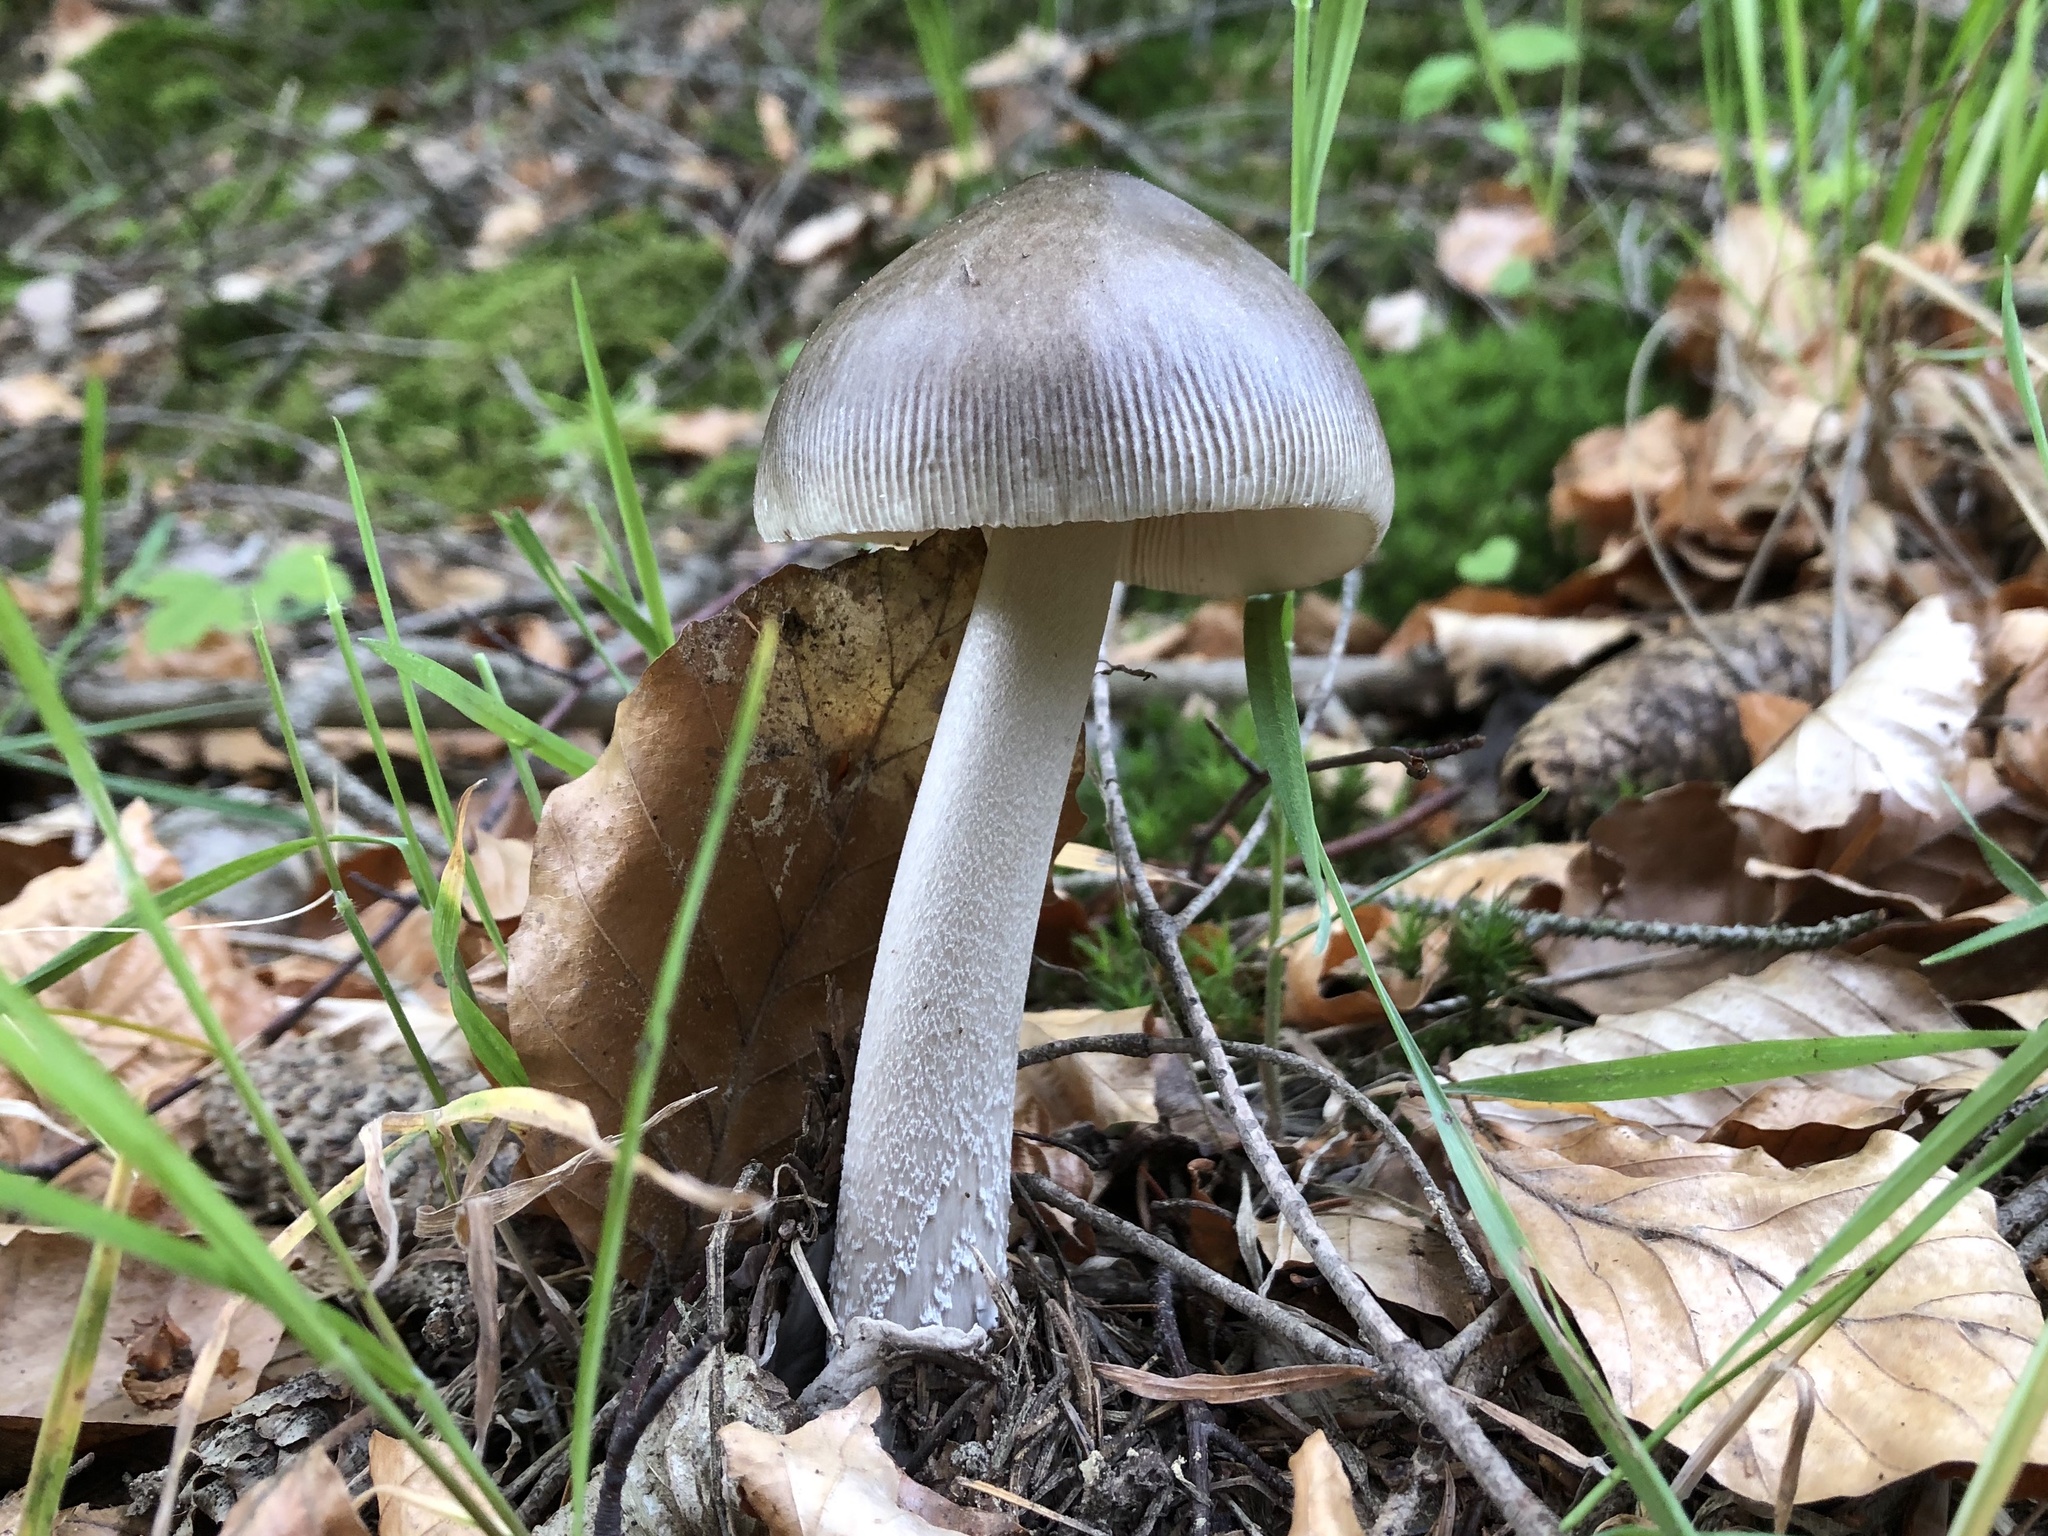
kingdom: Fungi
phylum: Basidiomycota
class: Agaricomycetes
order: Agaricales
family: Amanitaceae
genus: Amanita
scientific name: Amanita vaginata
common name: Grisette
